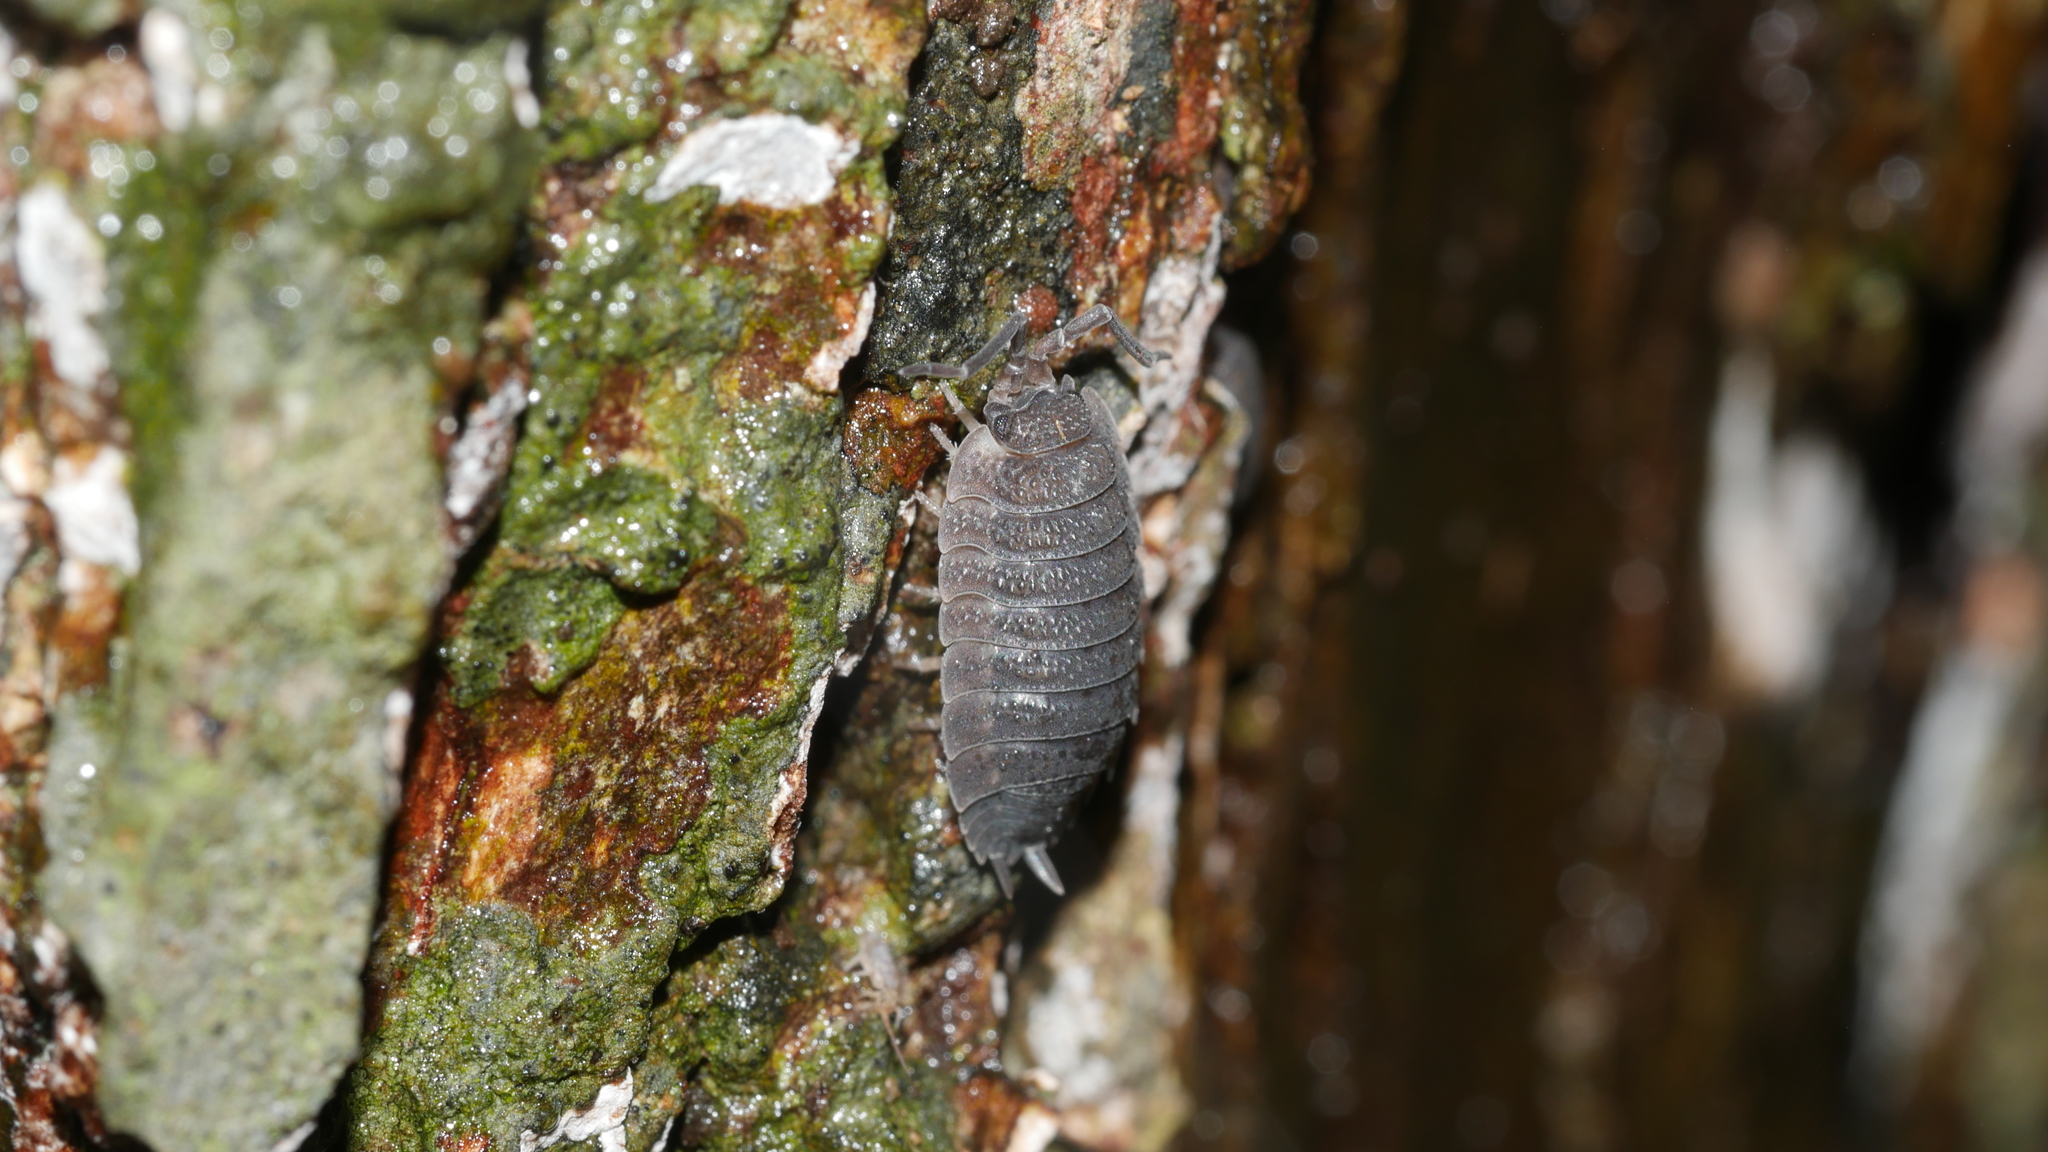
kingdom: Animalia
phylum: Arthropoda
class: Malacostraca
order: Isopoda
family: Porcellionidae
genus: Porcellio
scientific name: Porcellio scaber
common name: Common rough woodlouse
